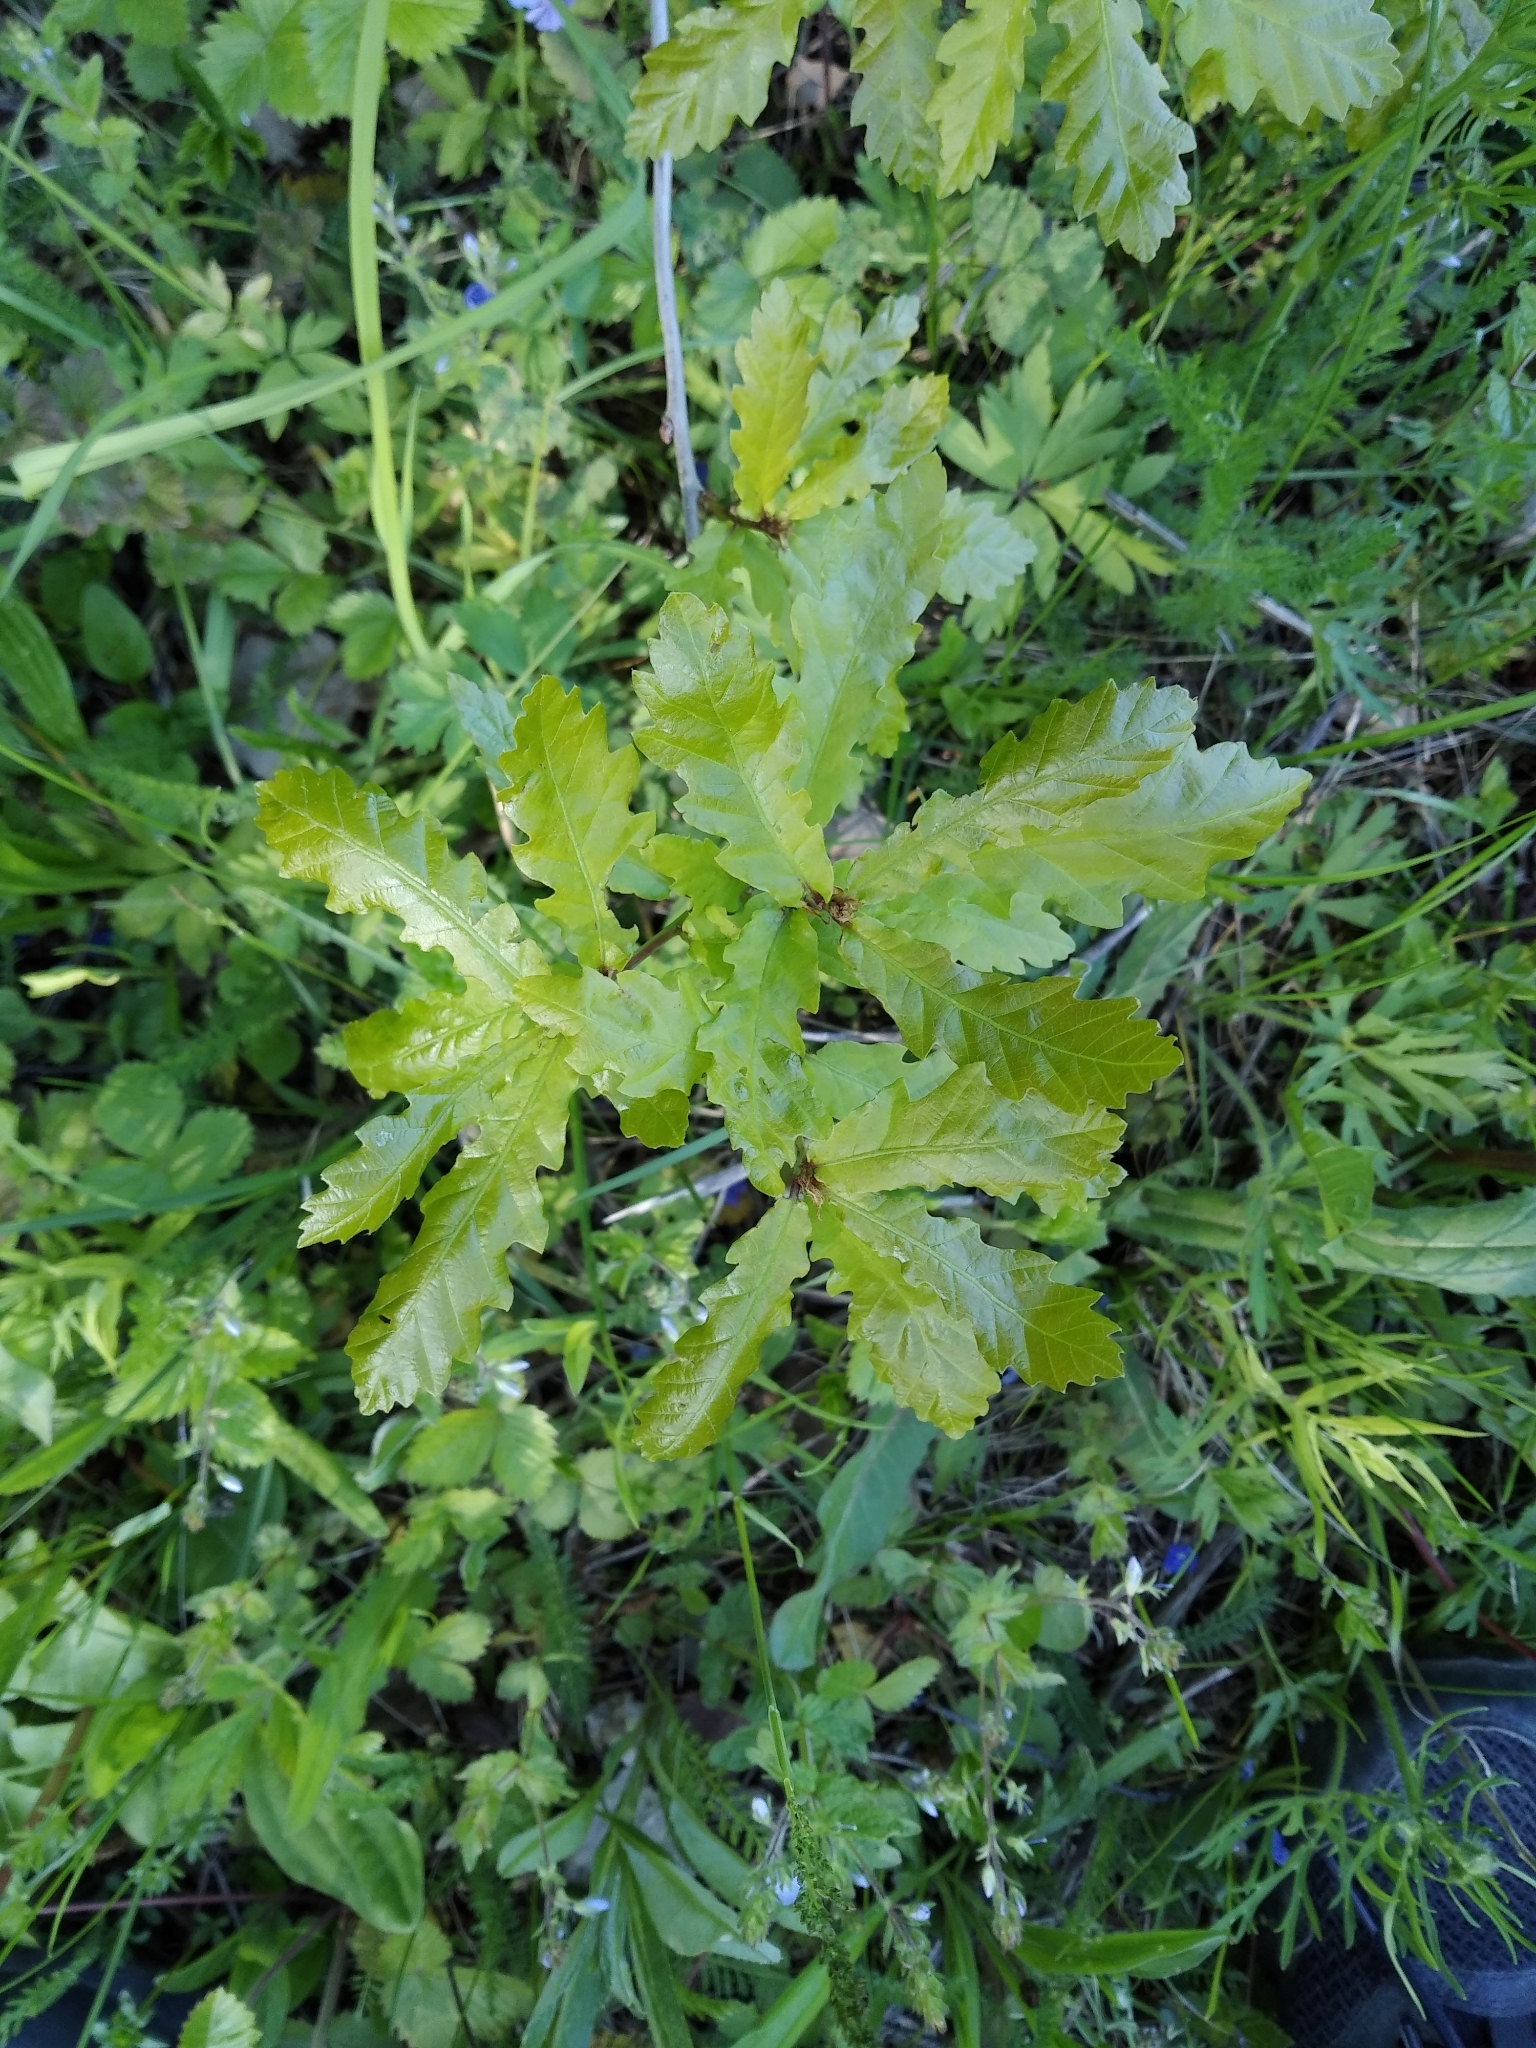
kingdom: Plantae
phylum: Tracheophyta
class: Magnoliopsida
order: Fagales
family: Fagaceae
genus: Quercus
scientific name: Quercus robur
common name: Pedunculate oak
